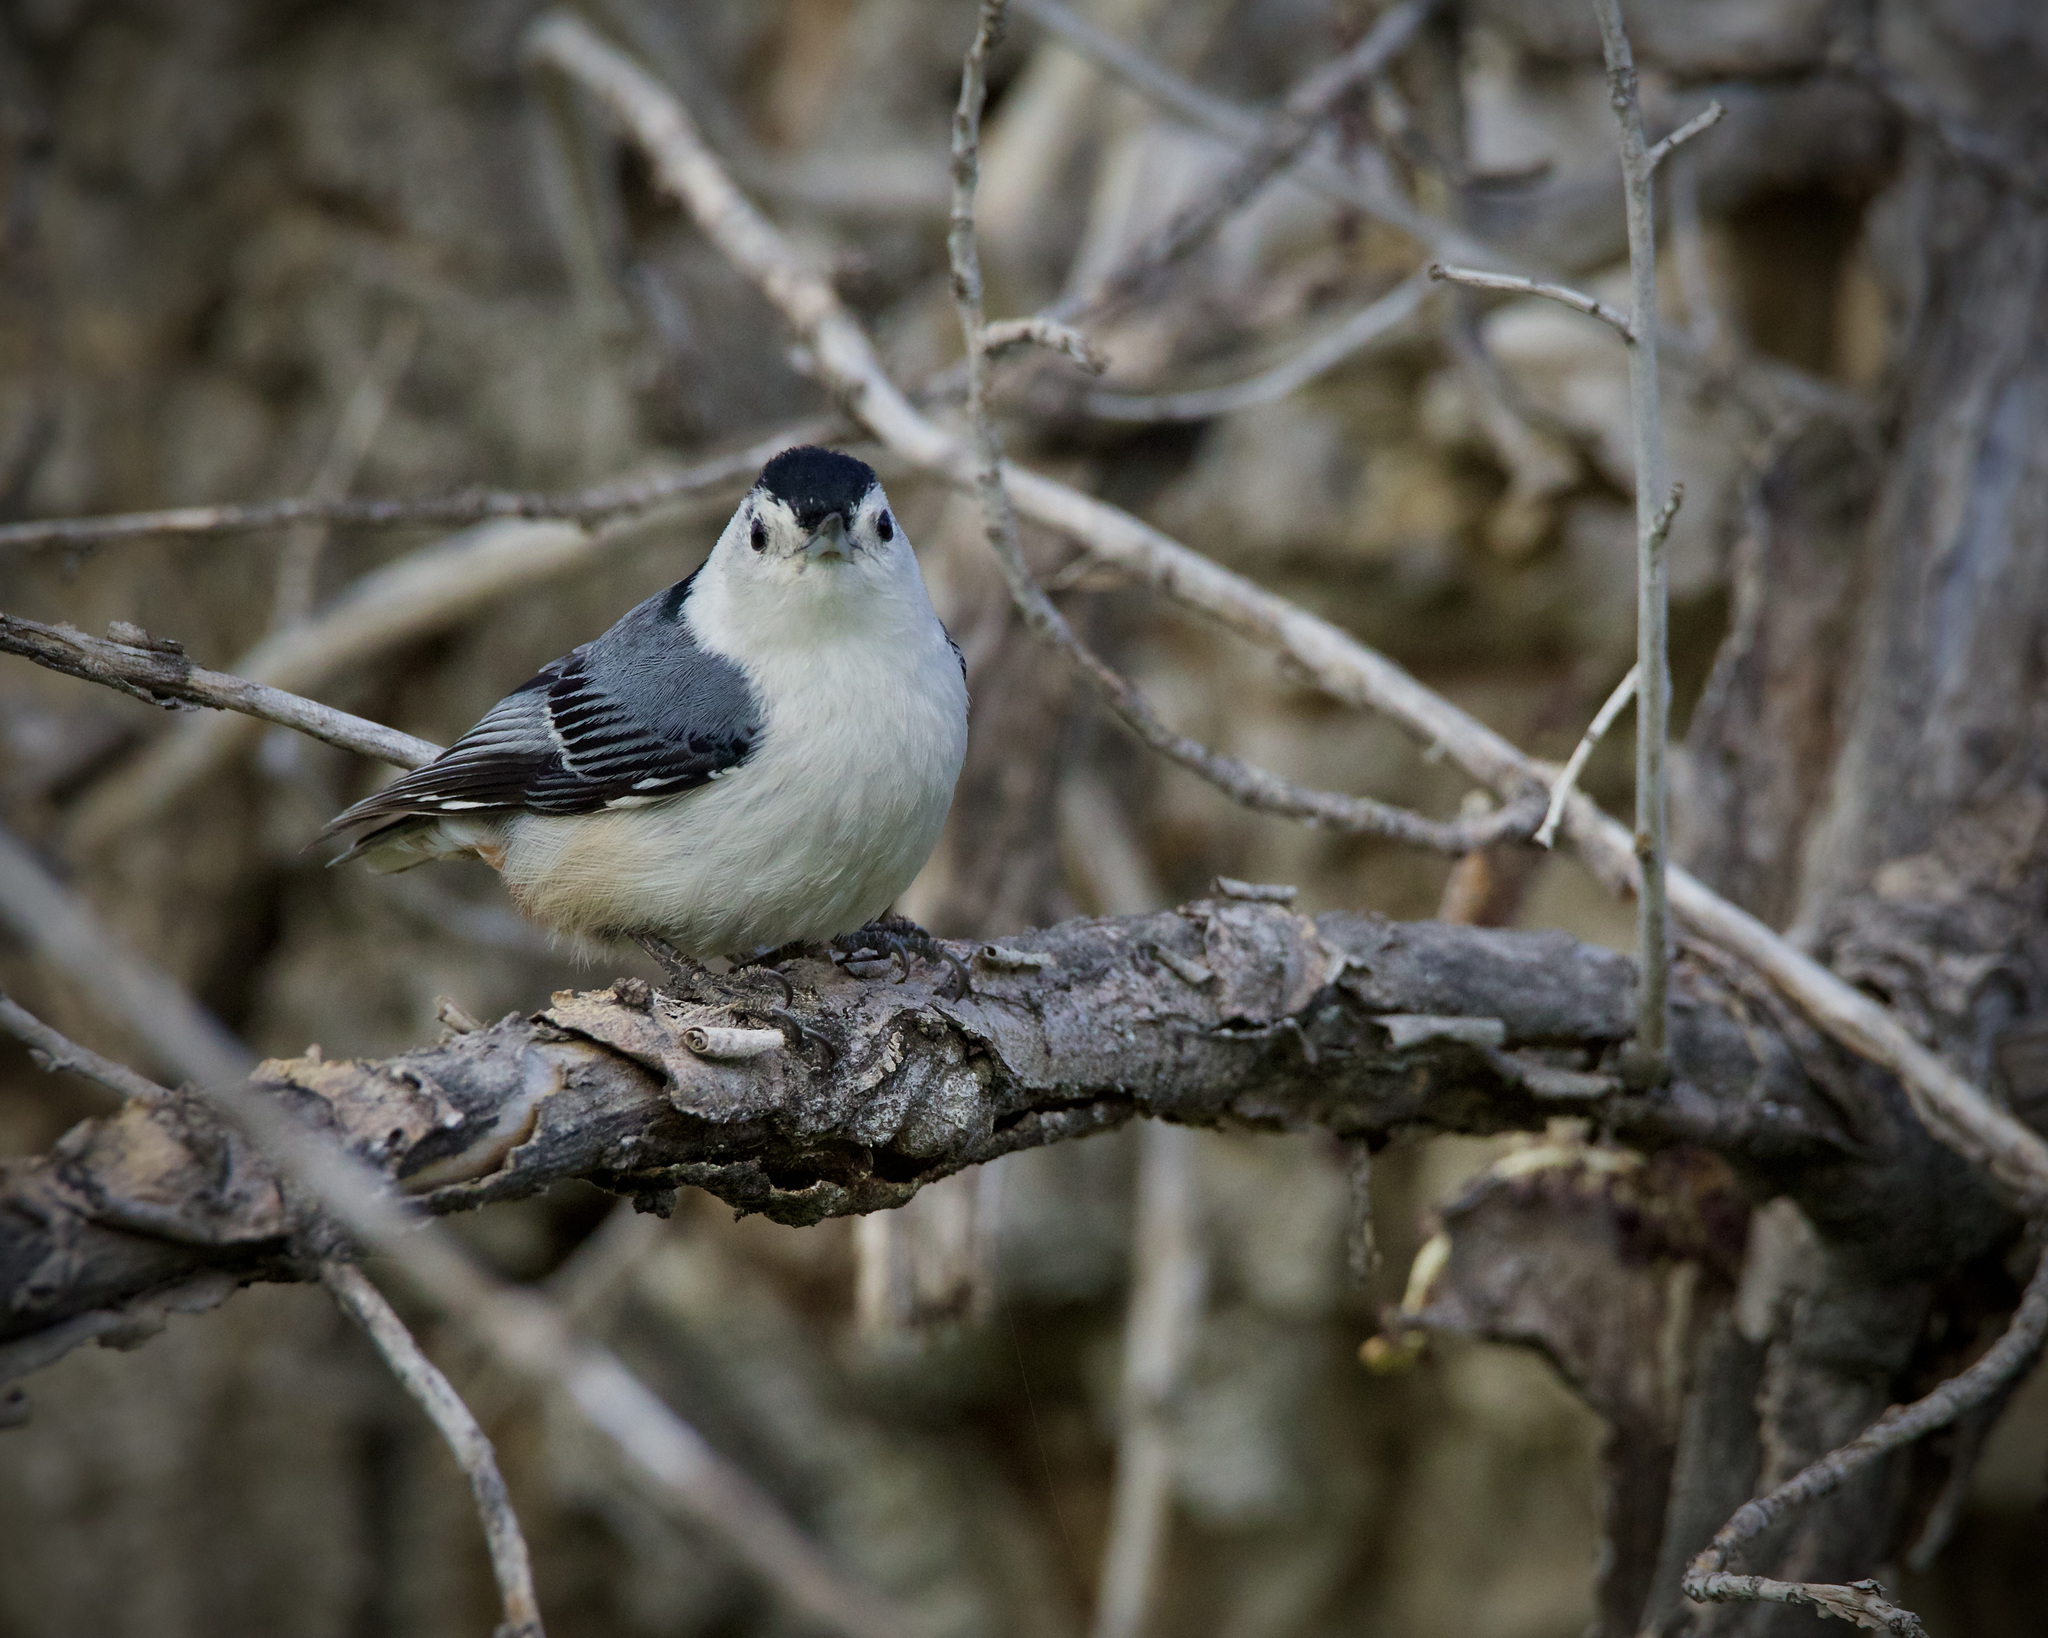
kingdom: Animalia
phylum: Chordata
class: Aves
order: Passeriformes
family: Sittidae
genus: Sitta
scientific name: Sitta carolinensis
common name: White-breasted nuthatch
